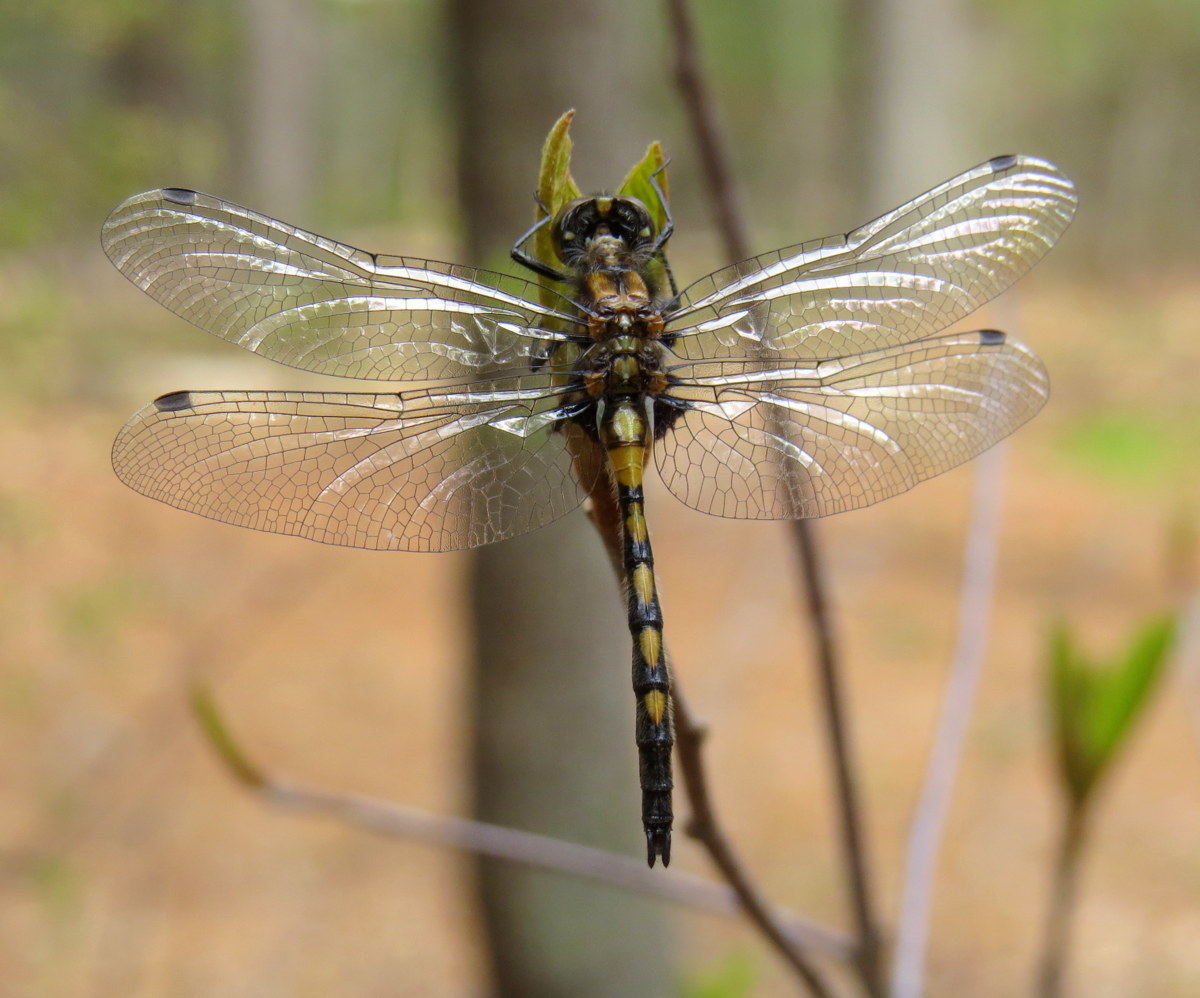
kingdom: Animalia
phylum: Arthropoda
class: Insecta
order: Odonata
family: Libellulidae
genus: Leucorrhinia
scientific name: Leucorrhinia hudsonica
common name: Hudsonian whiteface
